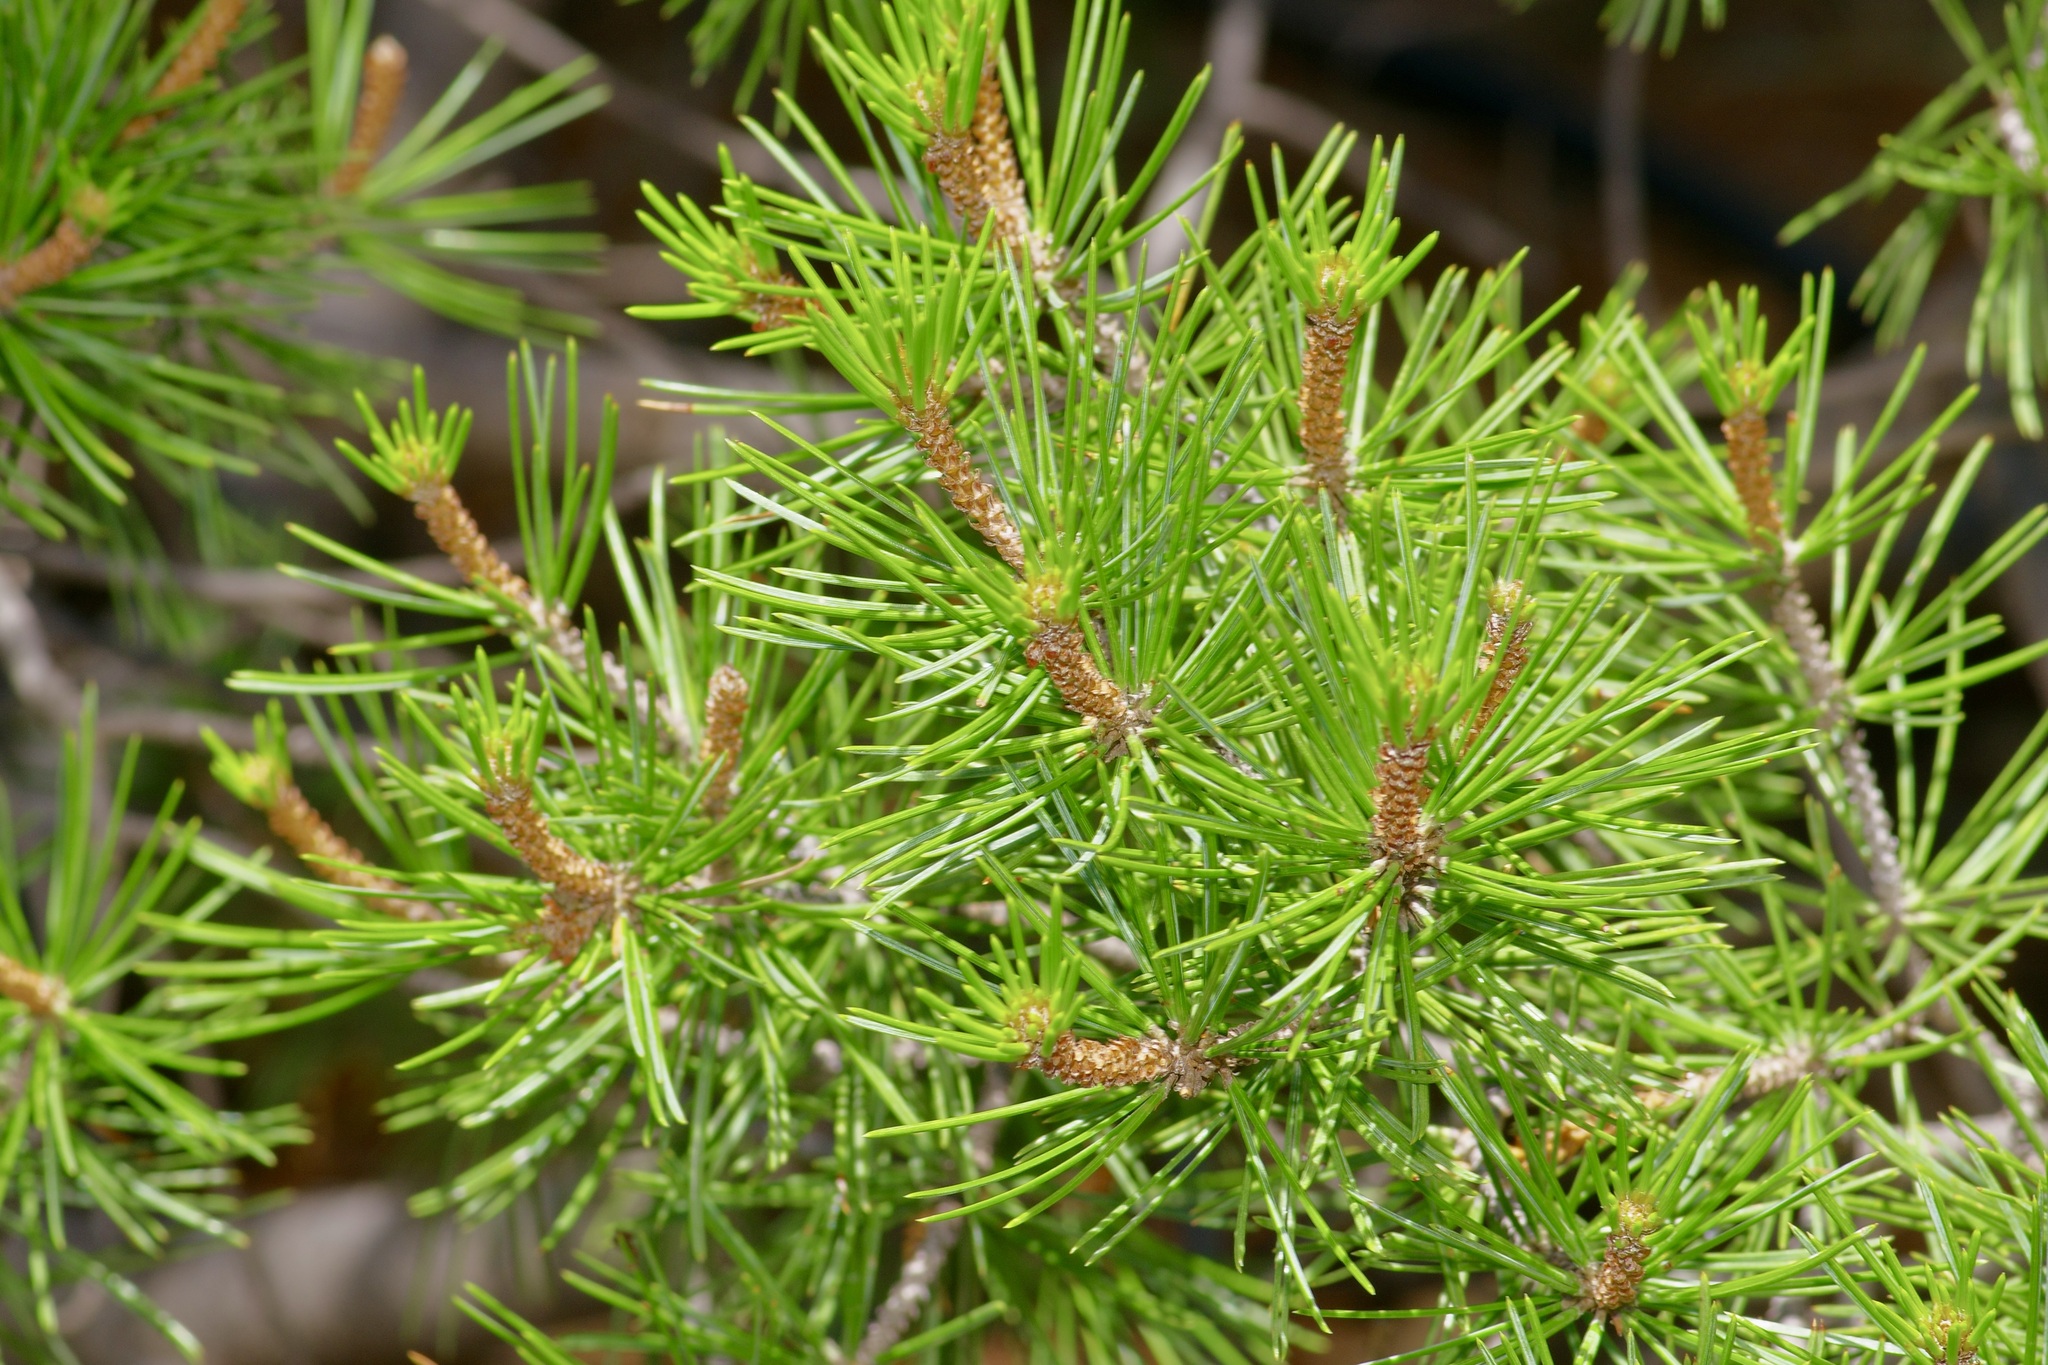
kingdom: Plantae
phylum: Tracheophyta
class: Pinopsida
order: Pinales
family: Pinaceae
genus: Pinus
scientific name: Pinus remota
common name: Nut pine
